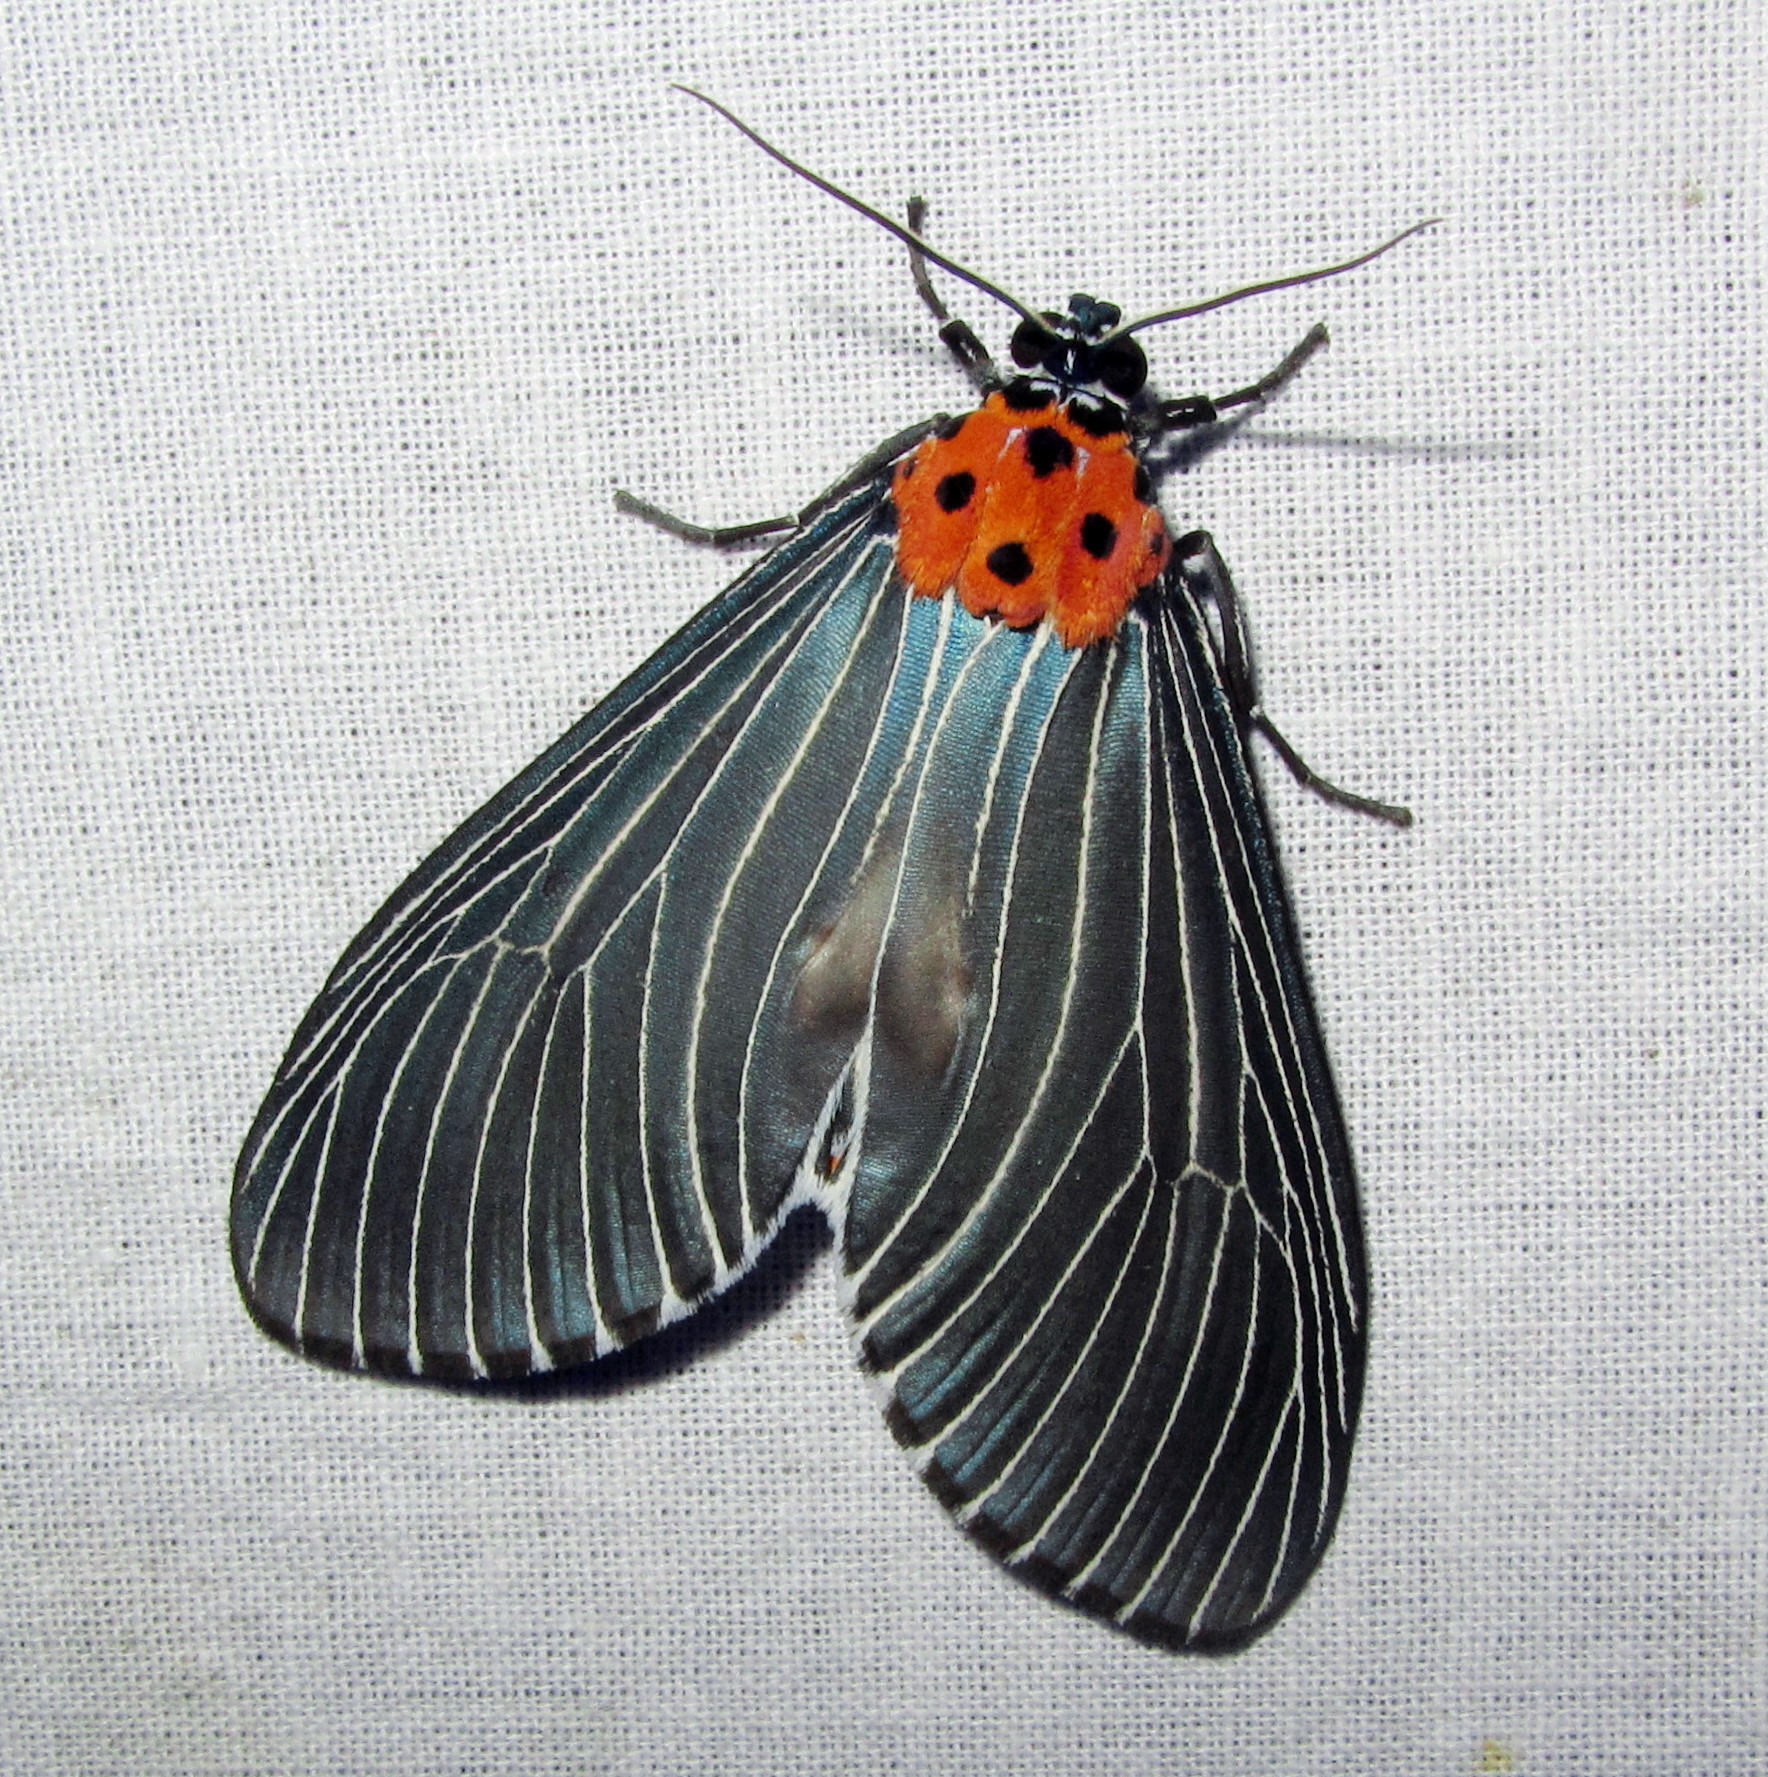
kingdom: Animalia
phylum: Arthropoda
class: Insecta
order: Lepidoptera
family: Erebidae
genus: Neochera
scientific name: Neochera marmorea
